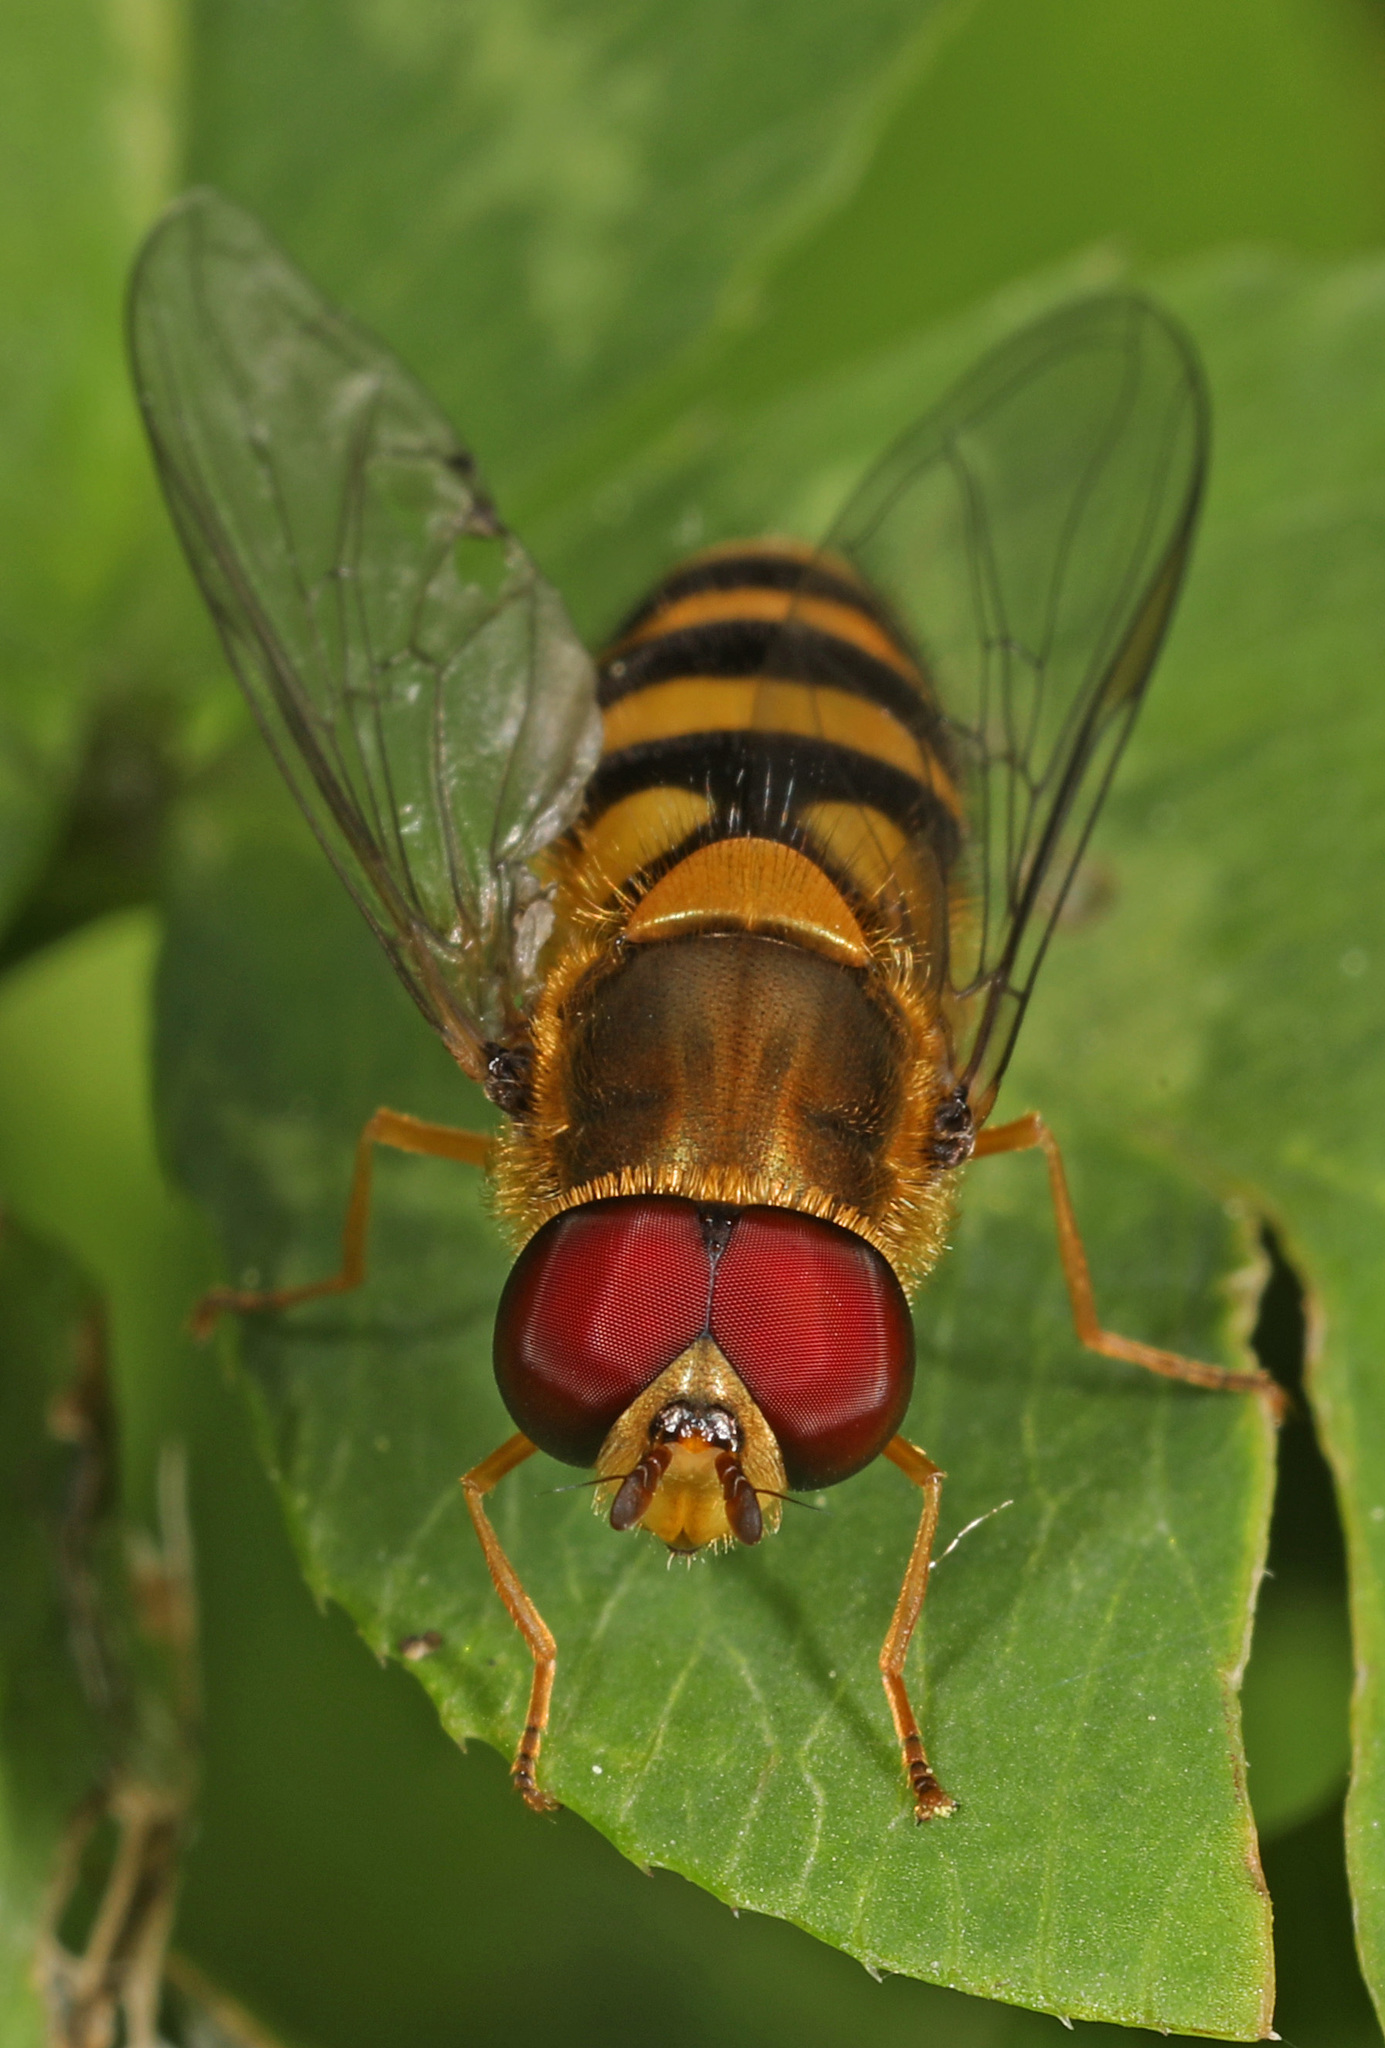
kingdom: Animalia
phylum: Arthropoda
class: Insecta
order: Diptera
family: Syrphidae
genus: Syrphus
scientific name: Syrphus
